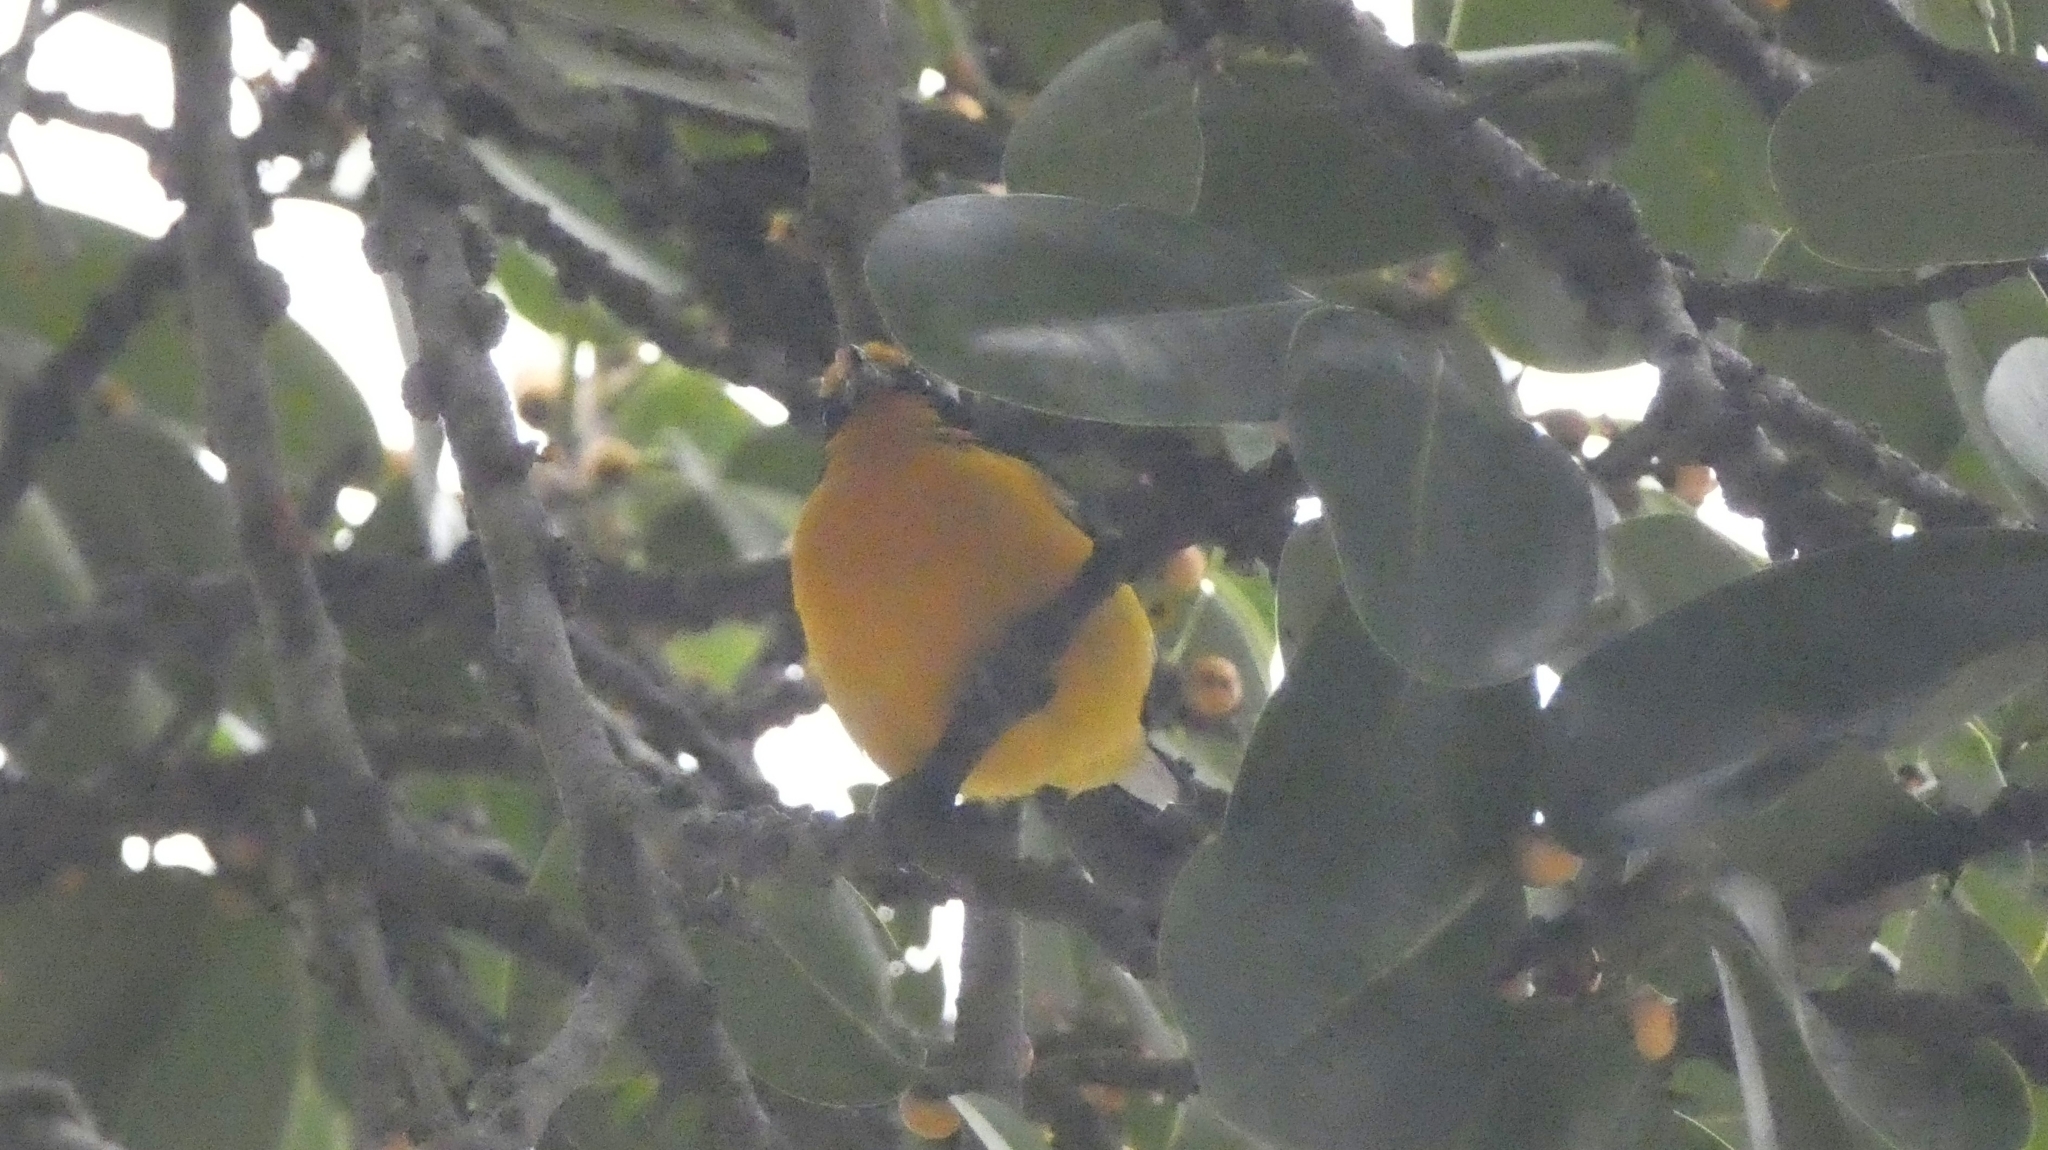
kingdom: Animalia
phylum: Chordata
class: Aves
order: Passeriformes
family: Fringillidae
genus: Euphonia
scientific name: Euphonia violacea
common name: Violaceous euphonia
